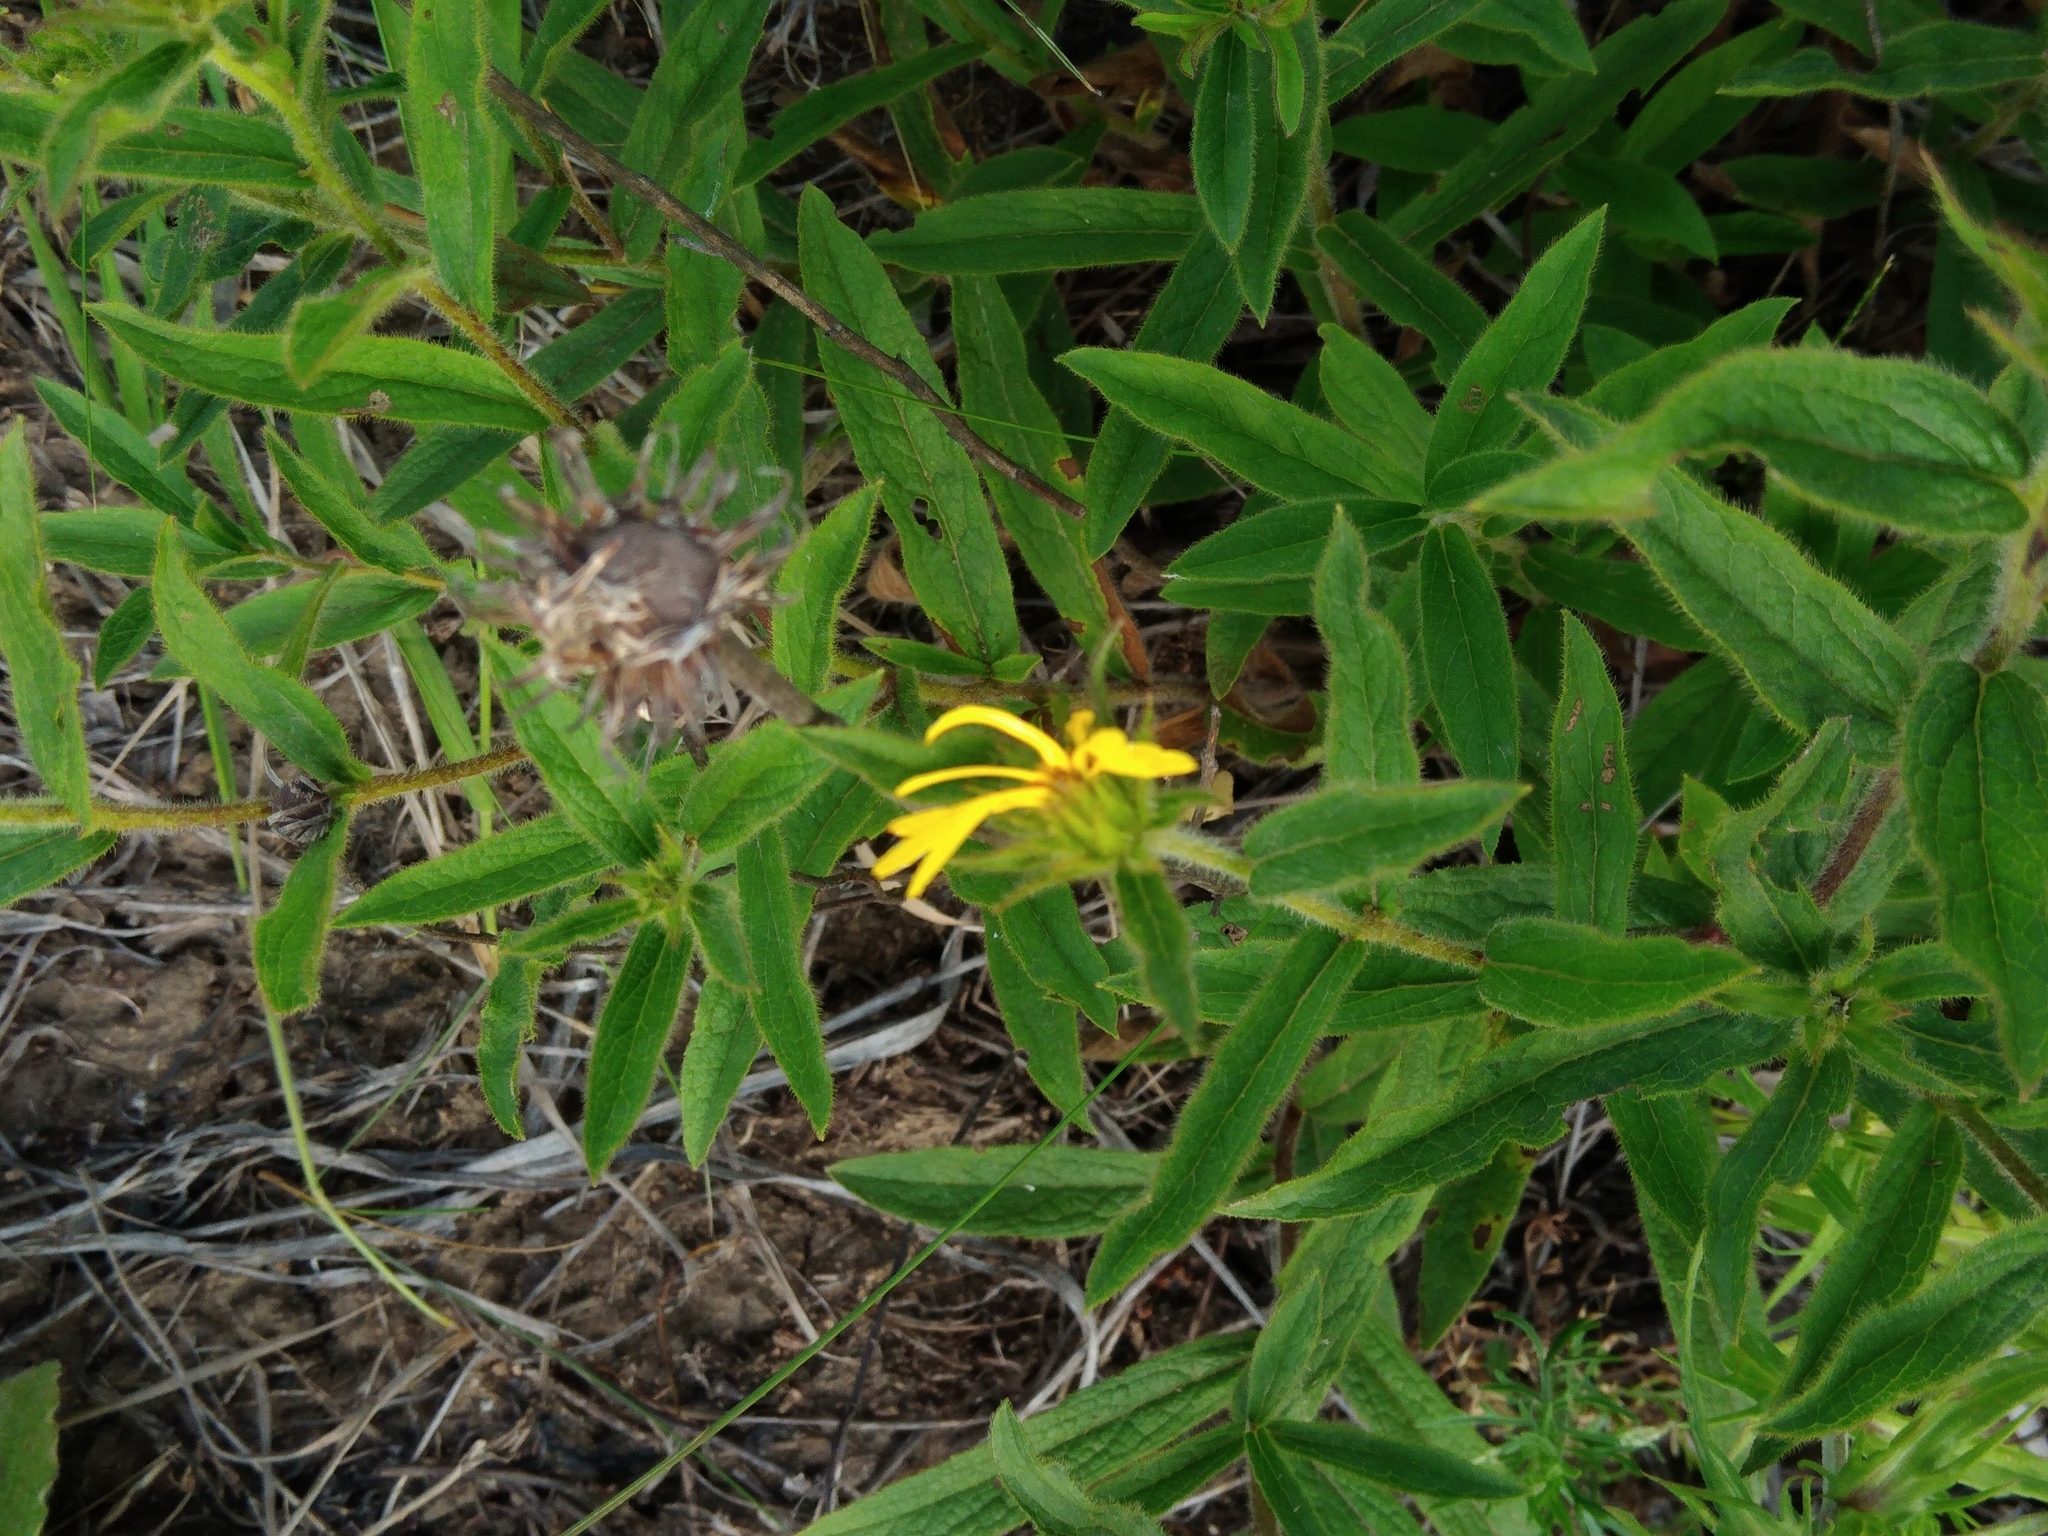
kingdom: Plantae
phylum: Tracheophyta
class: Magnoliopsida
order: Asterales
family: Asteraceae
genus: Pentanema
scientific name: Pentanema hirtum
